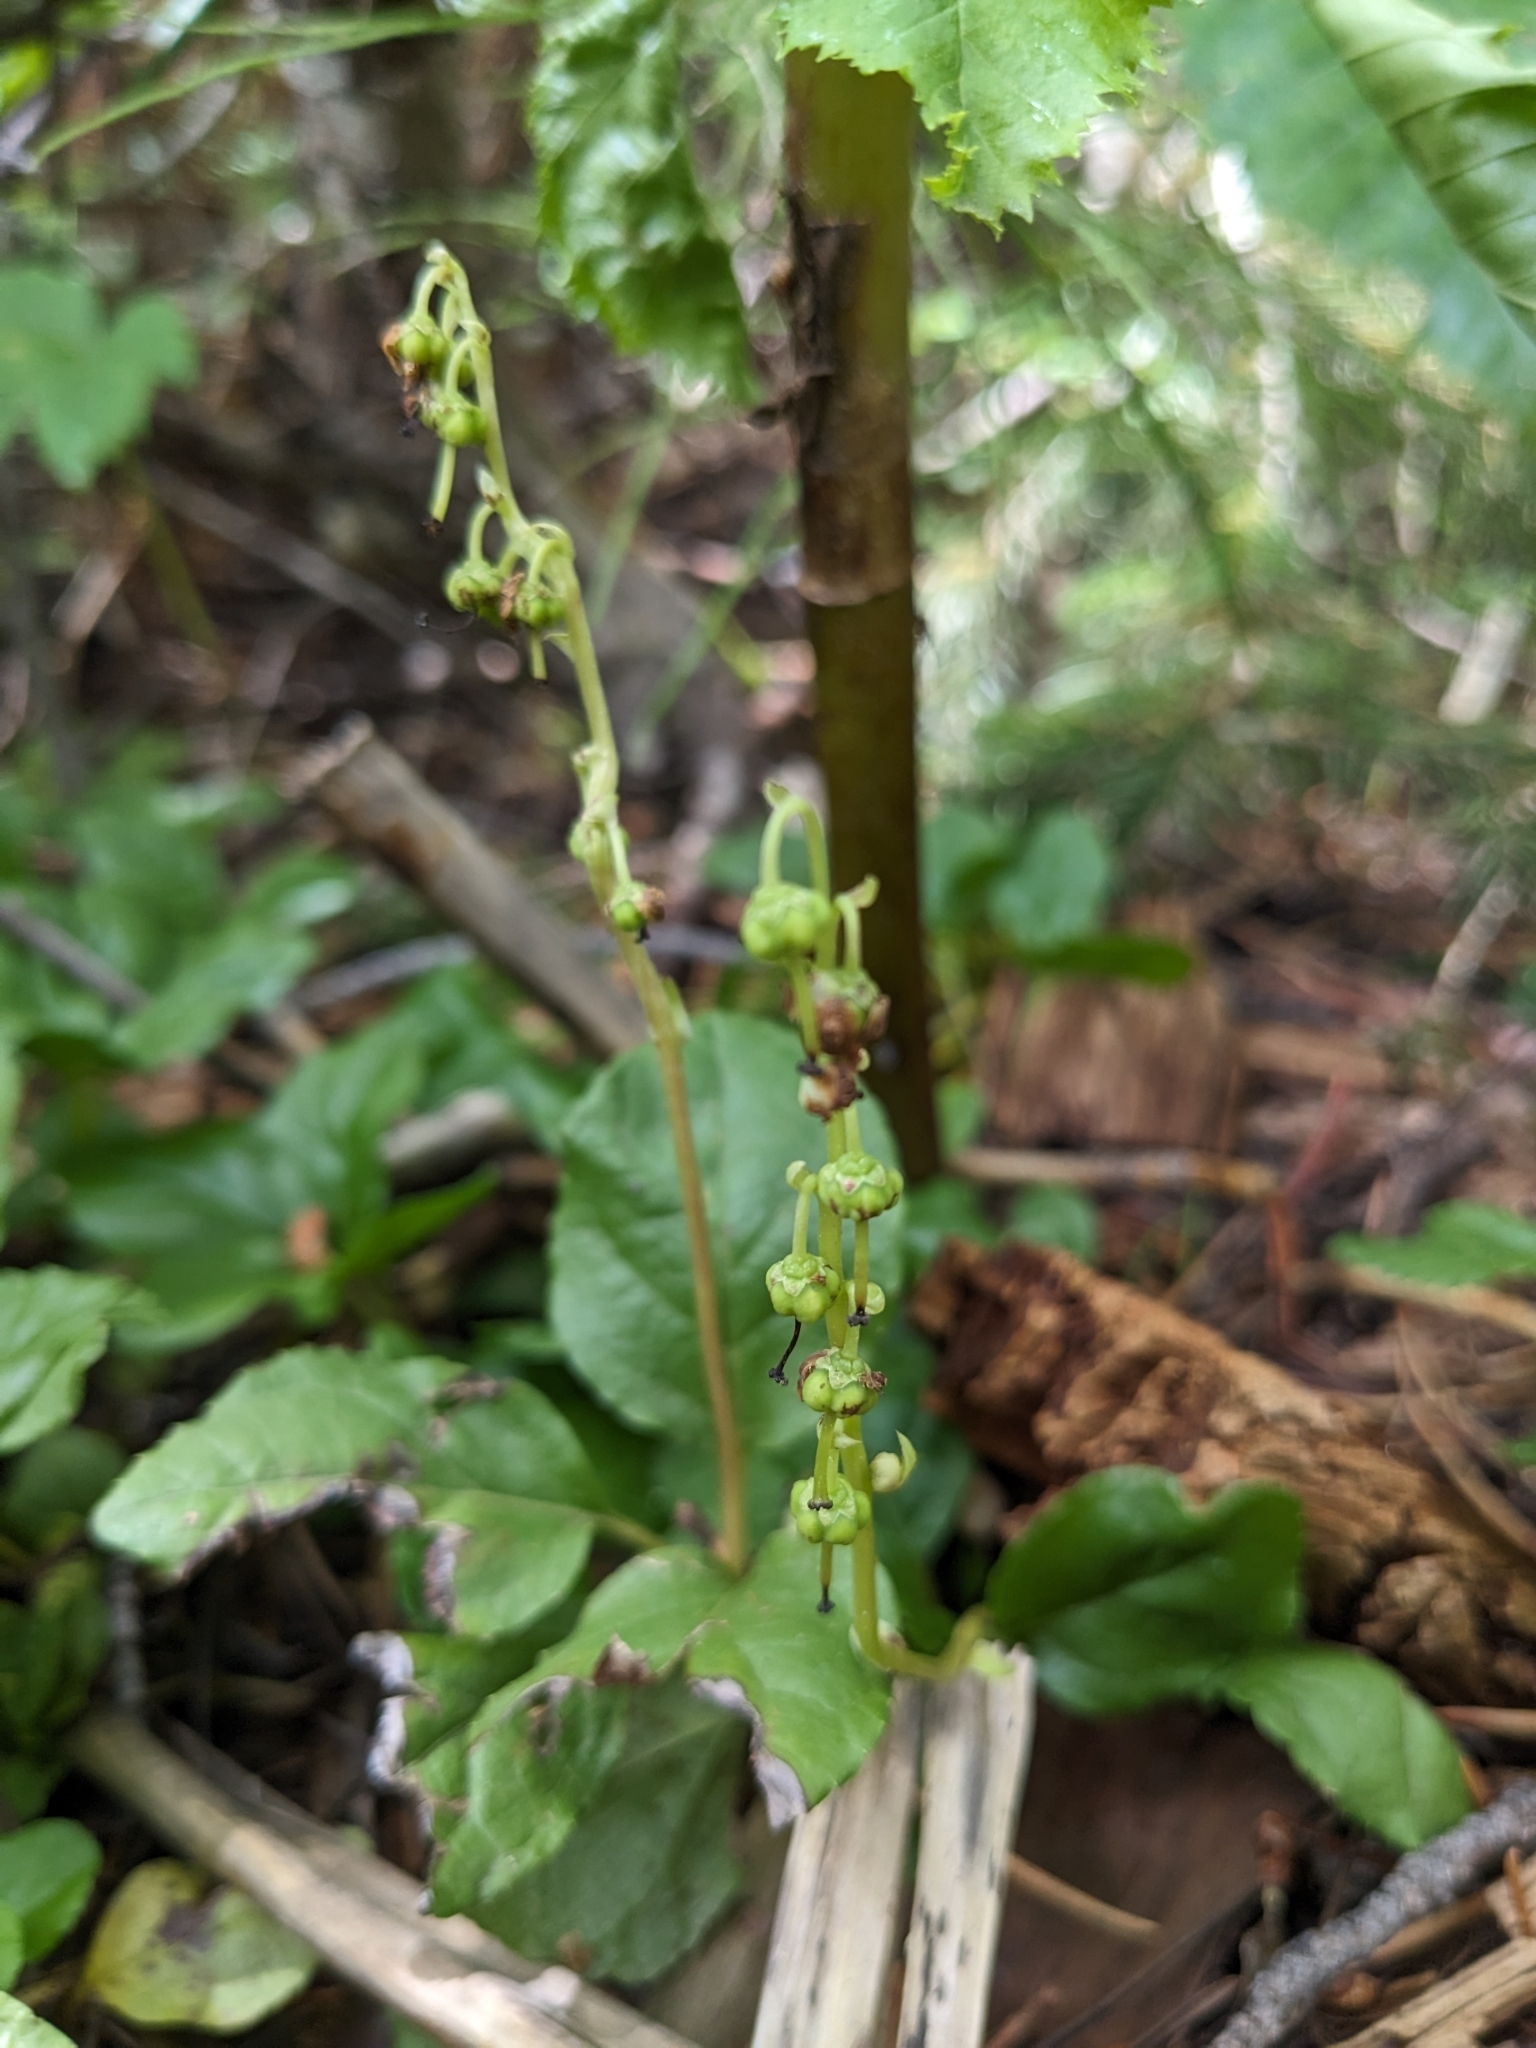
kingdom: Plantae
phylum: Tracheophyta
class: Magnoliopsida
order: Ericales
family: Ericaceae
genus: Orthilia
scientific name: Orthilia secunda
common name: One-sided orthilia
